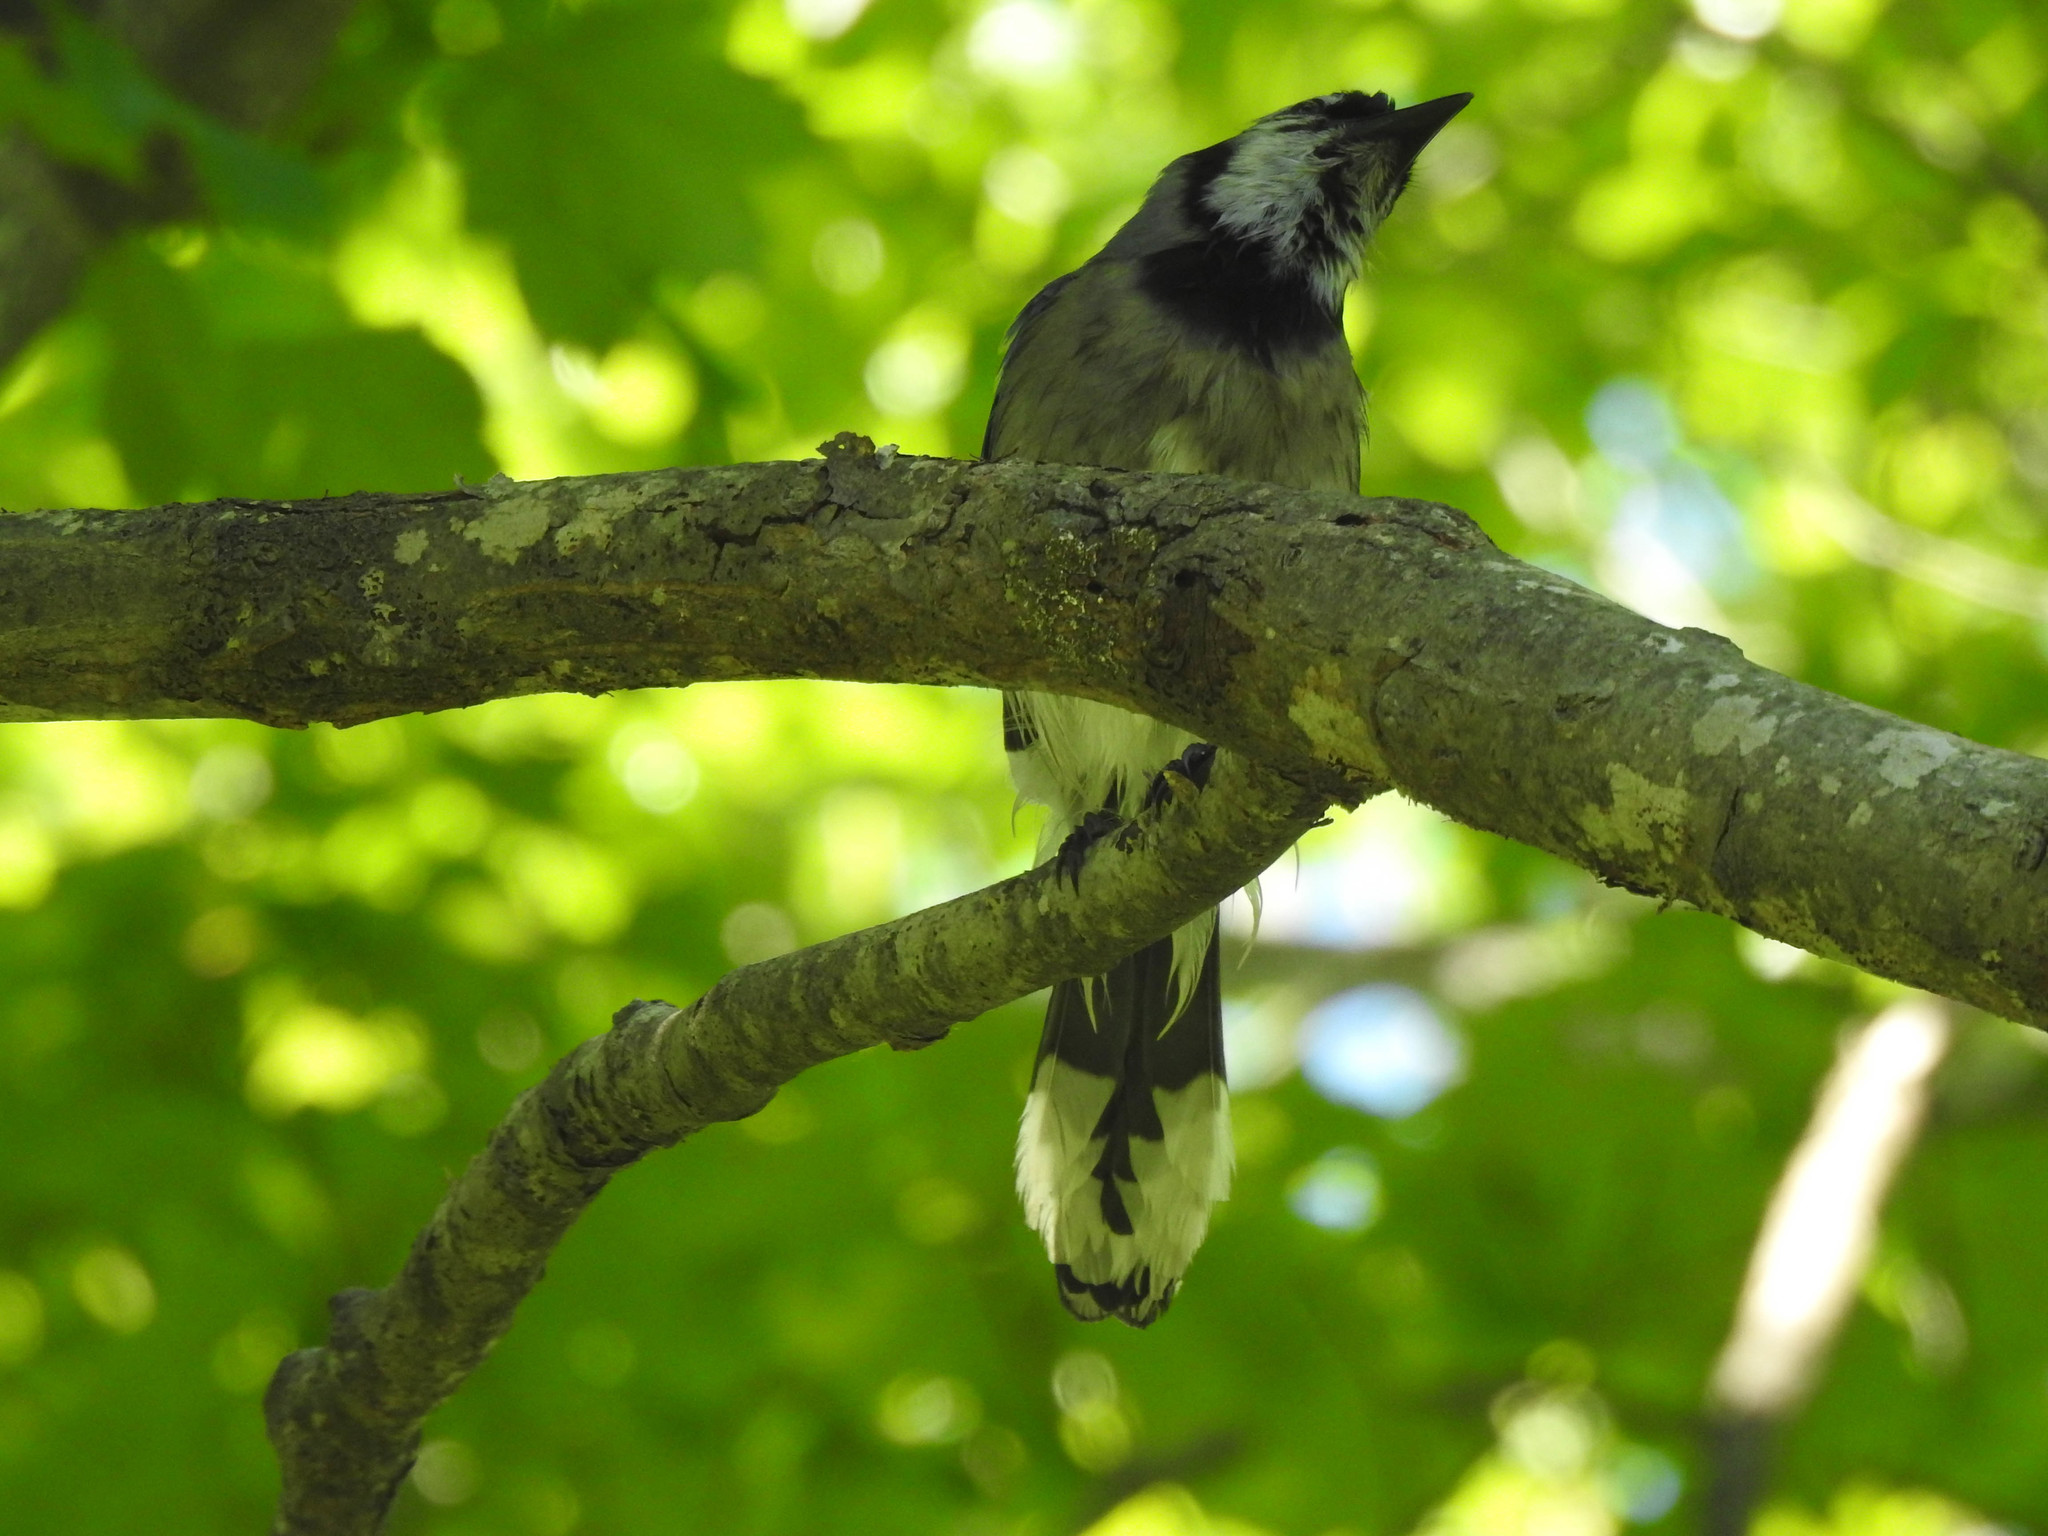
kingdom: Animalia
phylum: Chordata
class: Aves
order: Passeriformes
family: Corvidae
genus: Cyanocitta
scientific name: Cyanocitta cristata
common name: Blue jay
